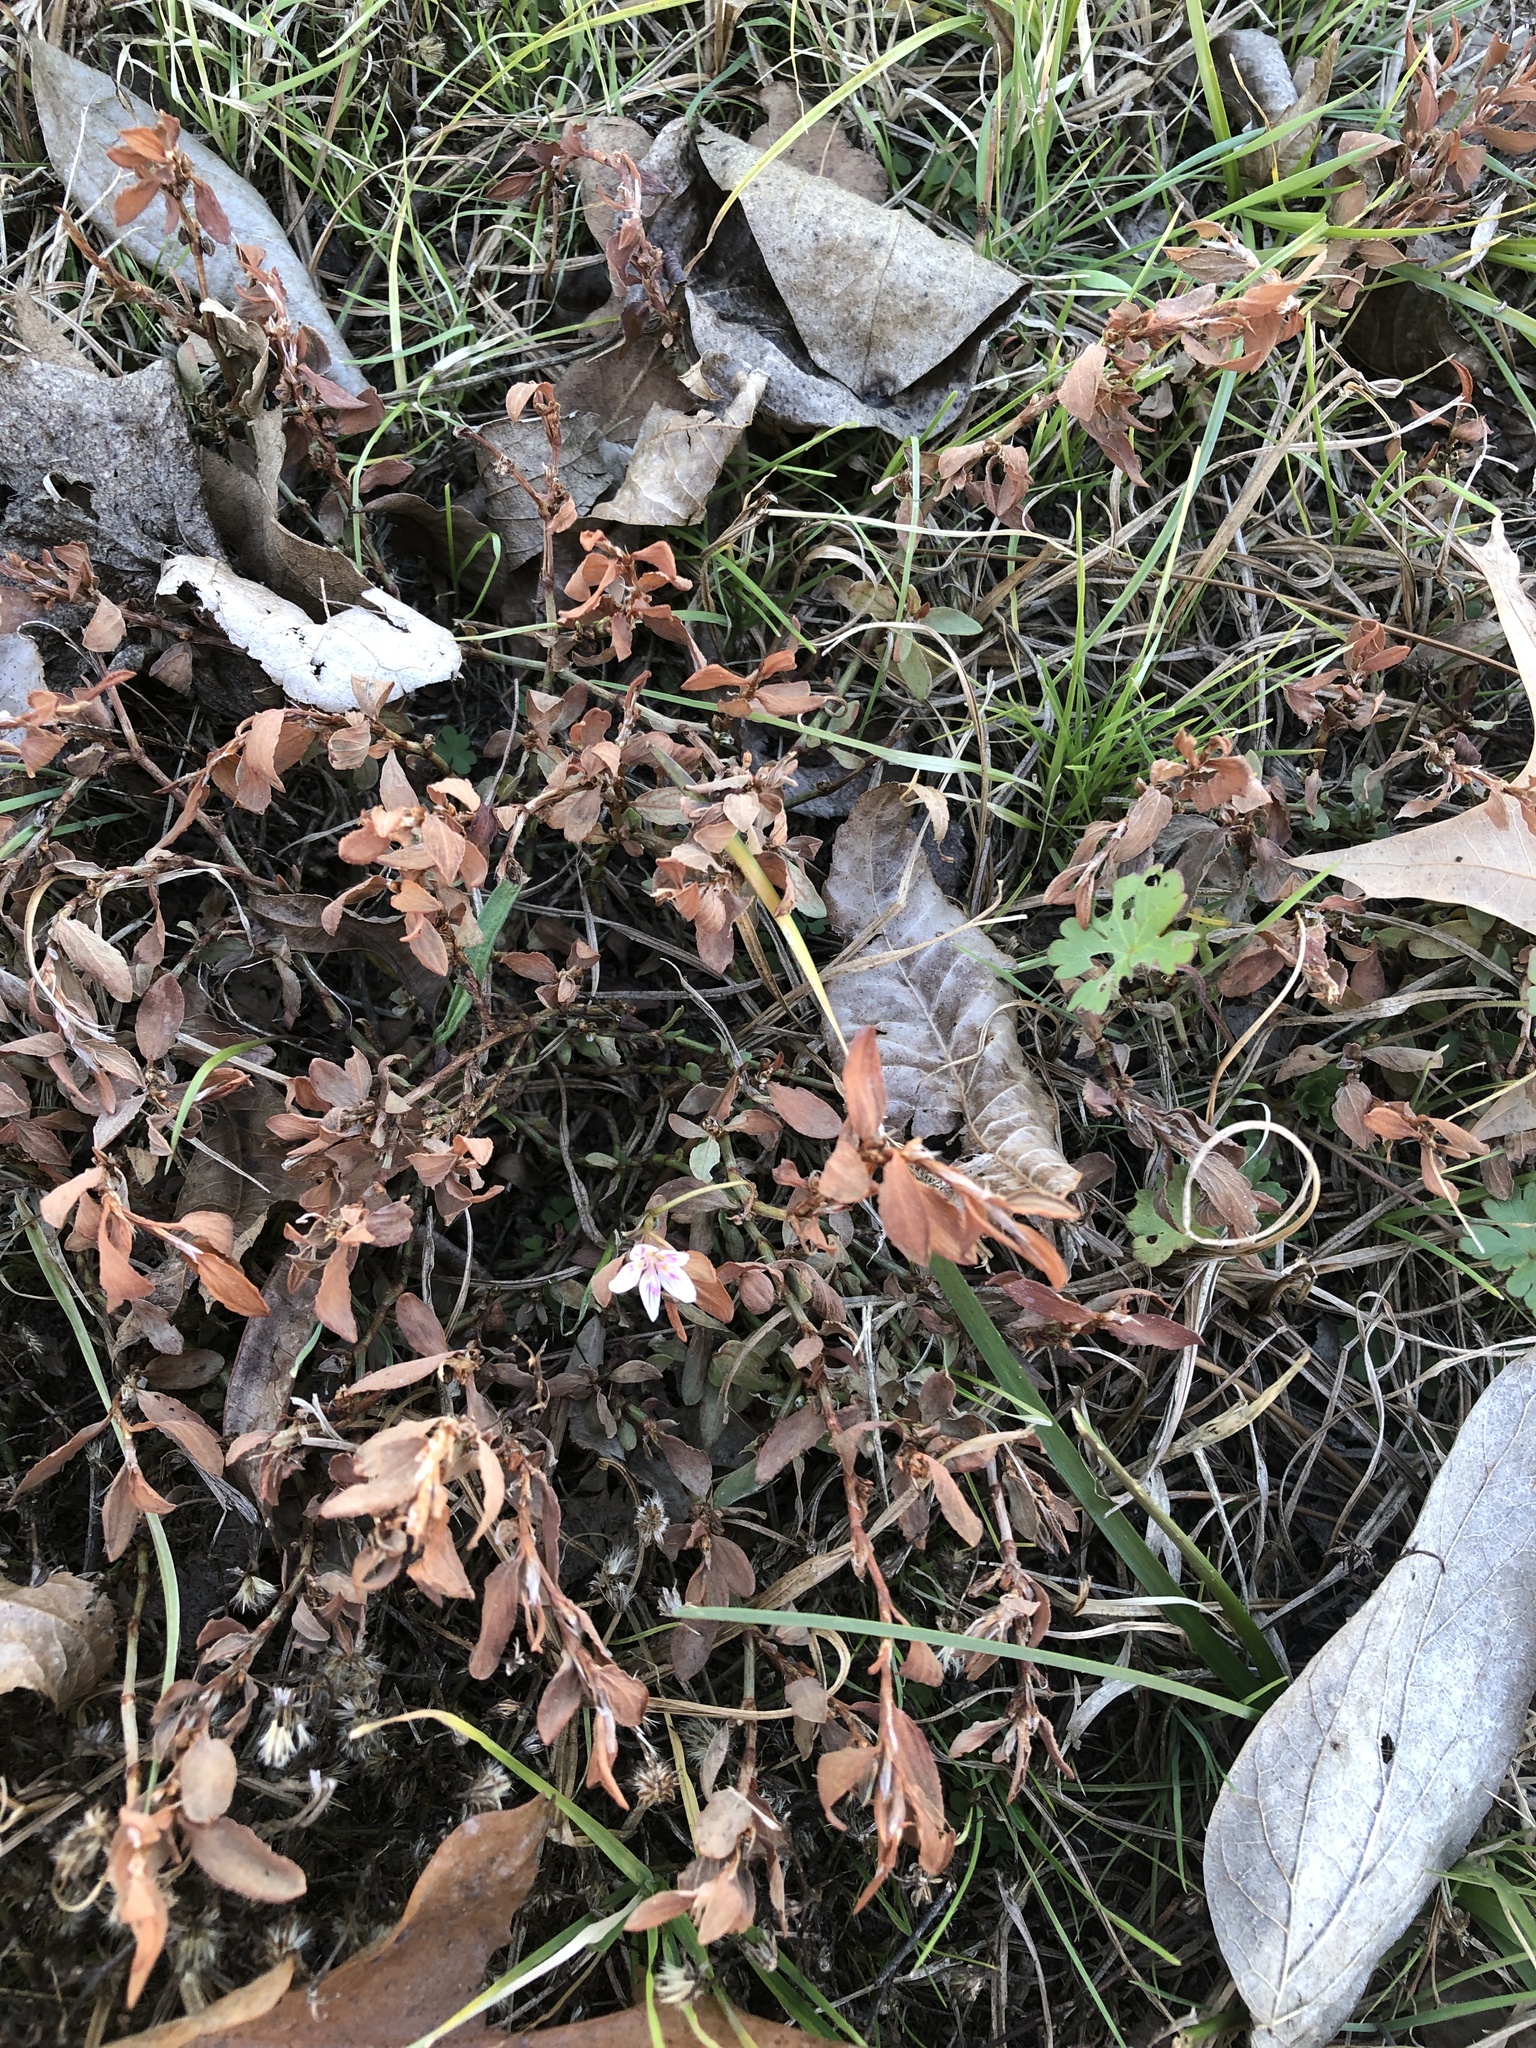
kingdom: Plantae
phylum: Tracheophyta
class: Magnoliopsida
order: Caryophyllales
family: Montiaceae
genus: Claytonia
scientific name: Claytonia virginica
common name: Virginia springbeauty
